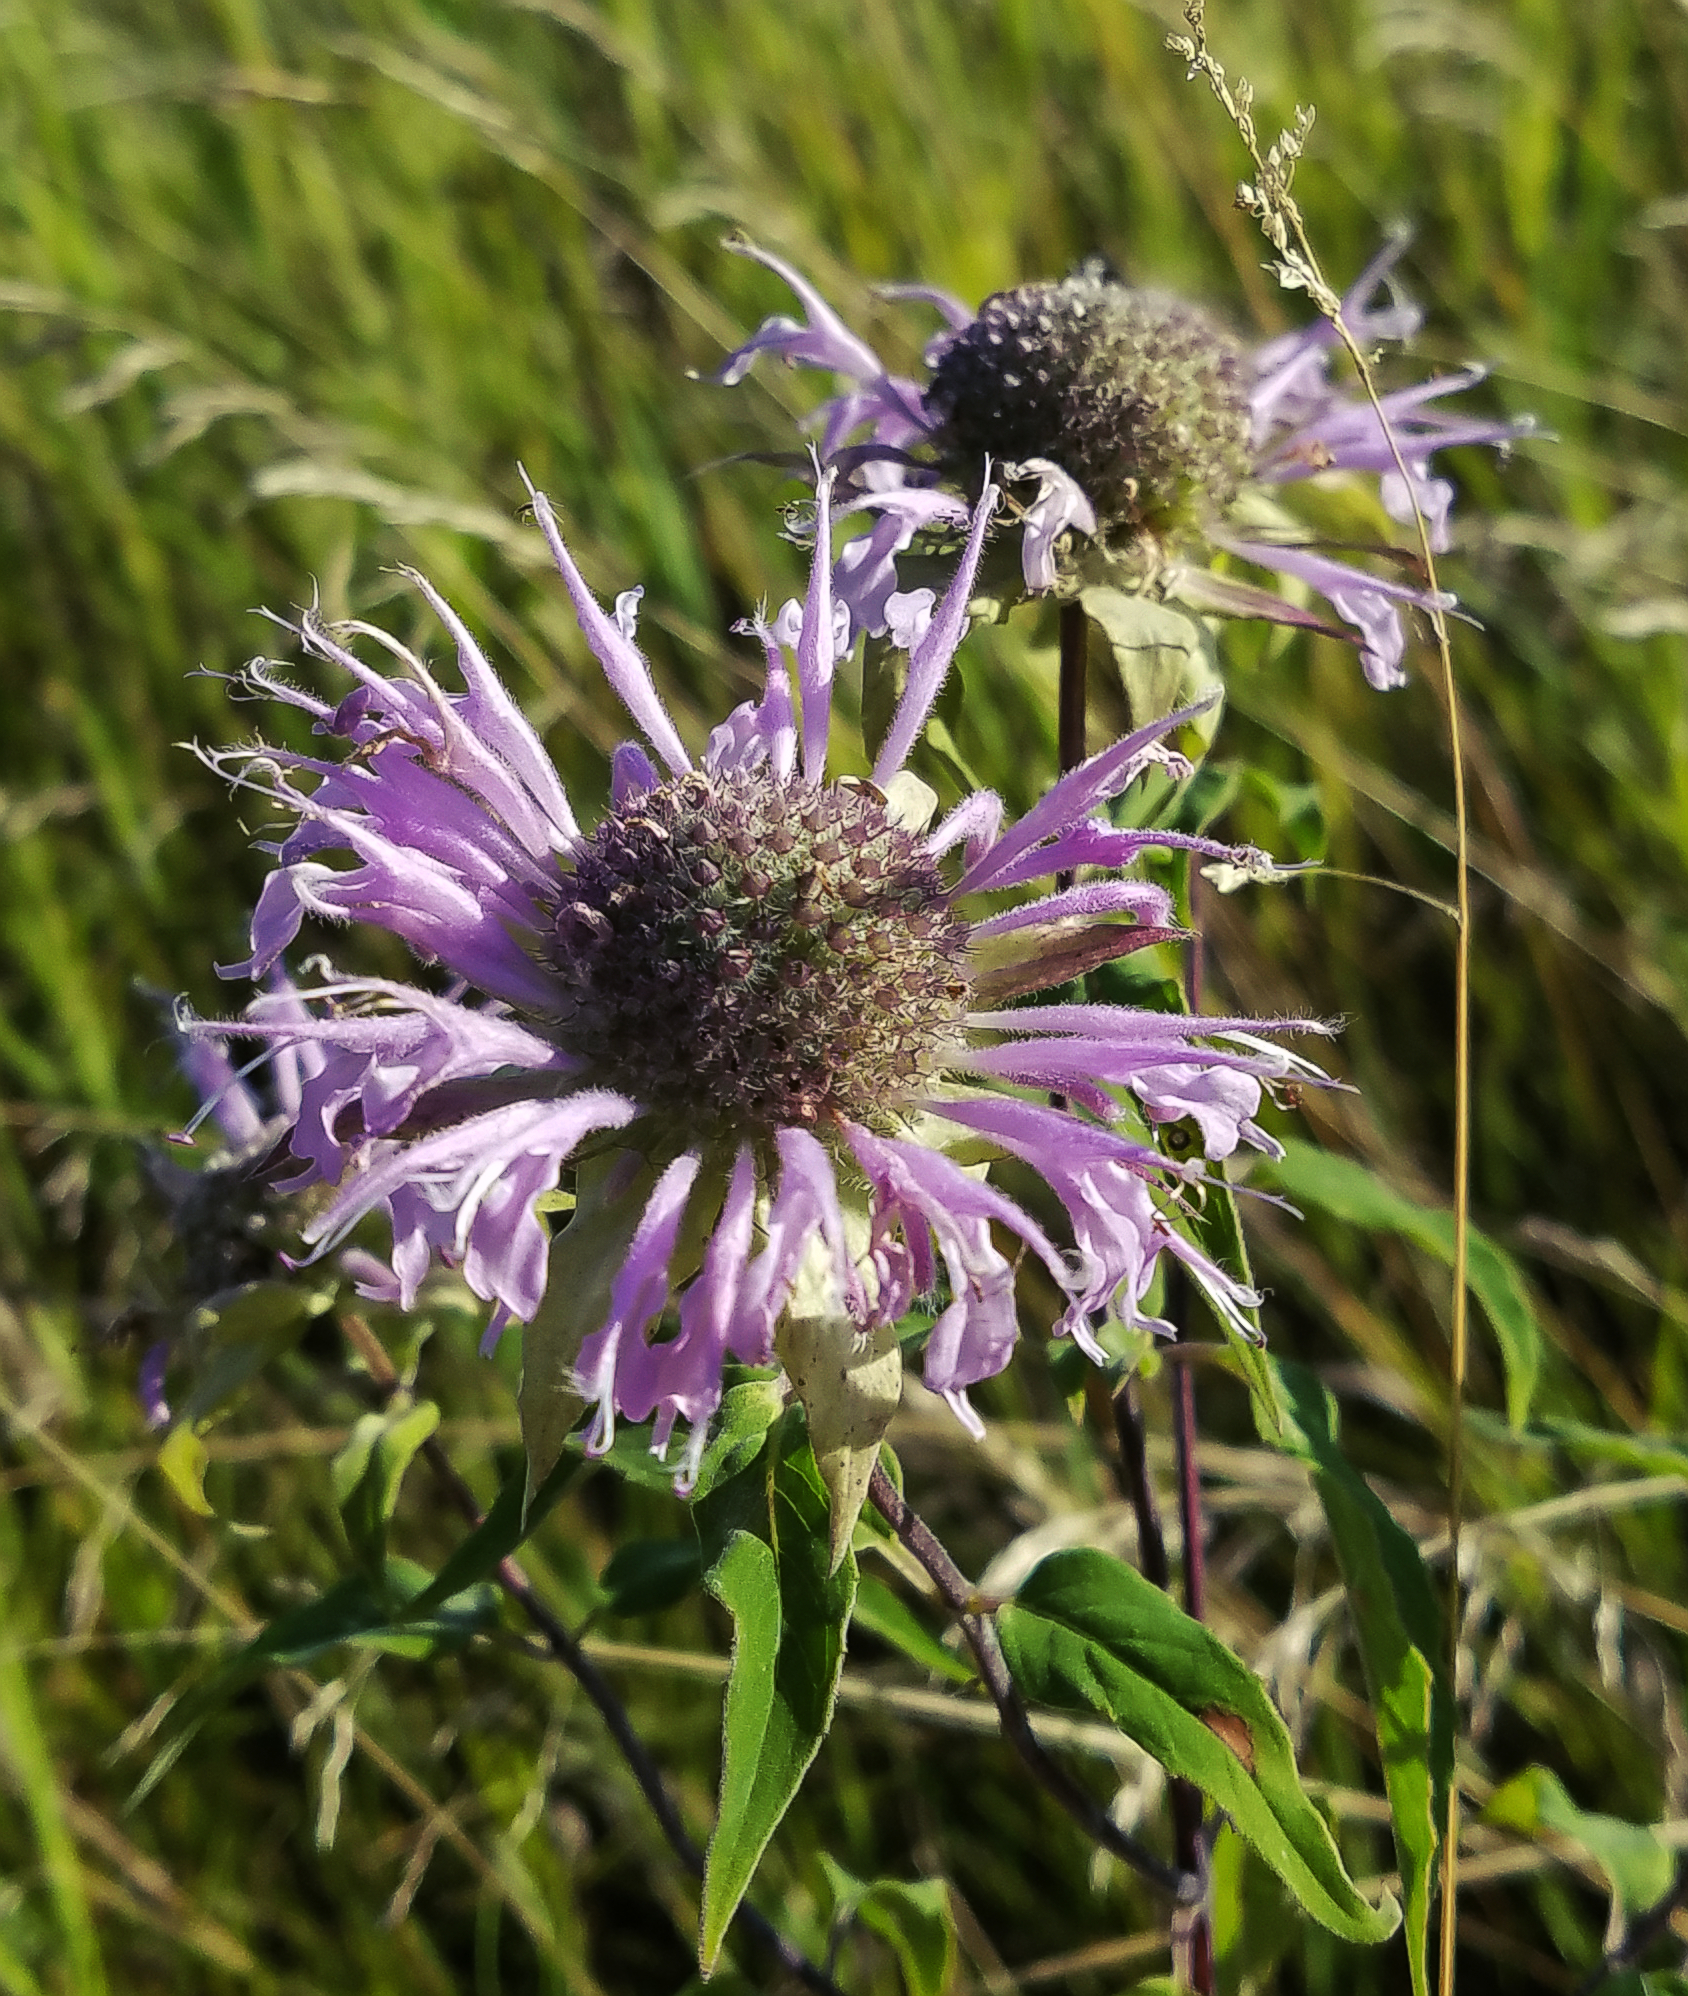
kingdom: Plantae
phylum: Tracheophyta
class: Magnoliopsida
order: Lamiales
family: Lamiaceae
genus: Monarda
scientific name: Monarda fistulosa
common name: Purple beebalm
